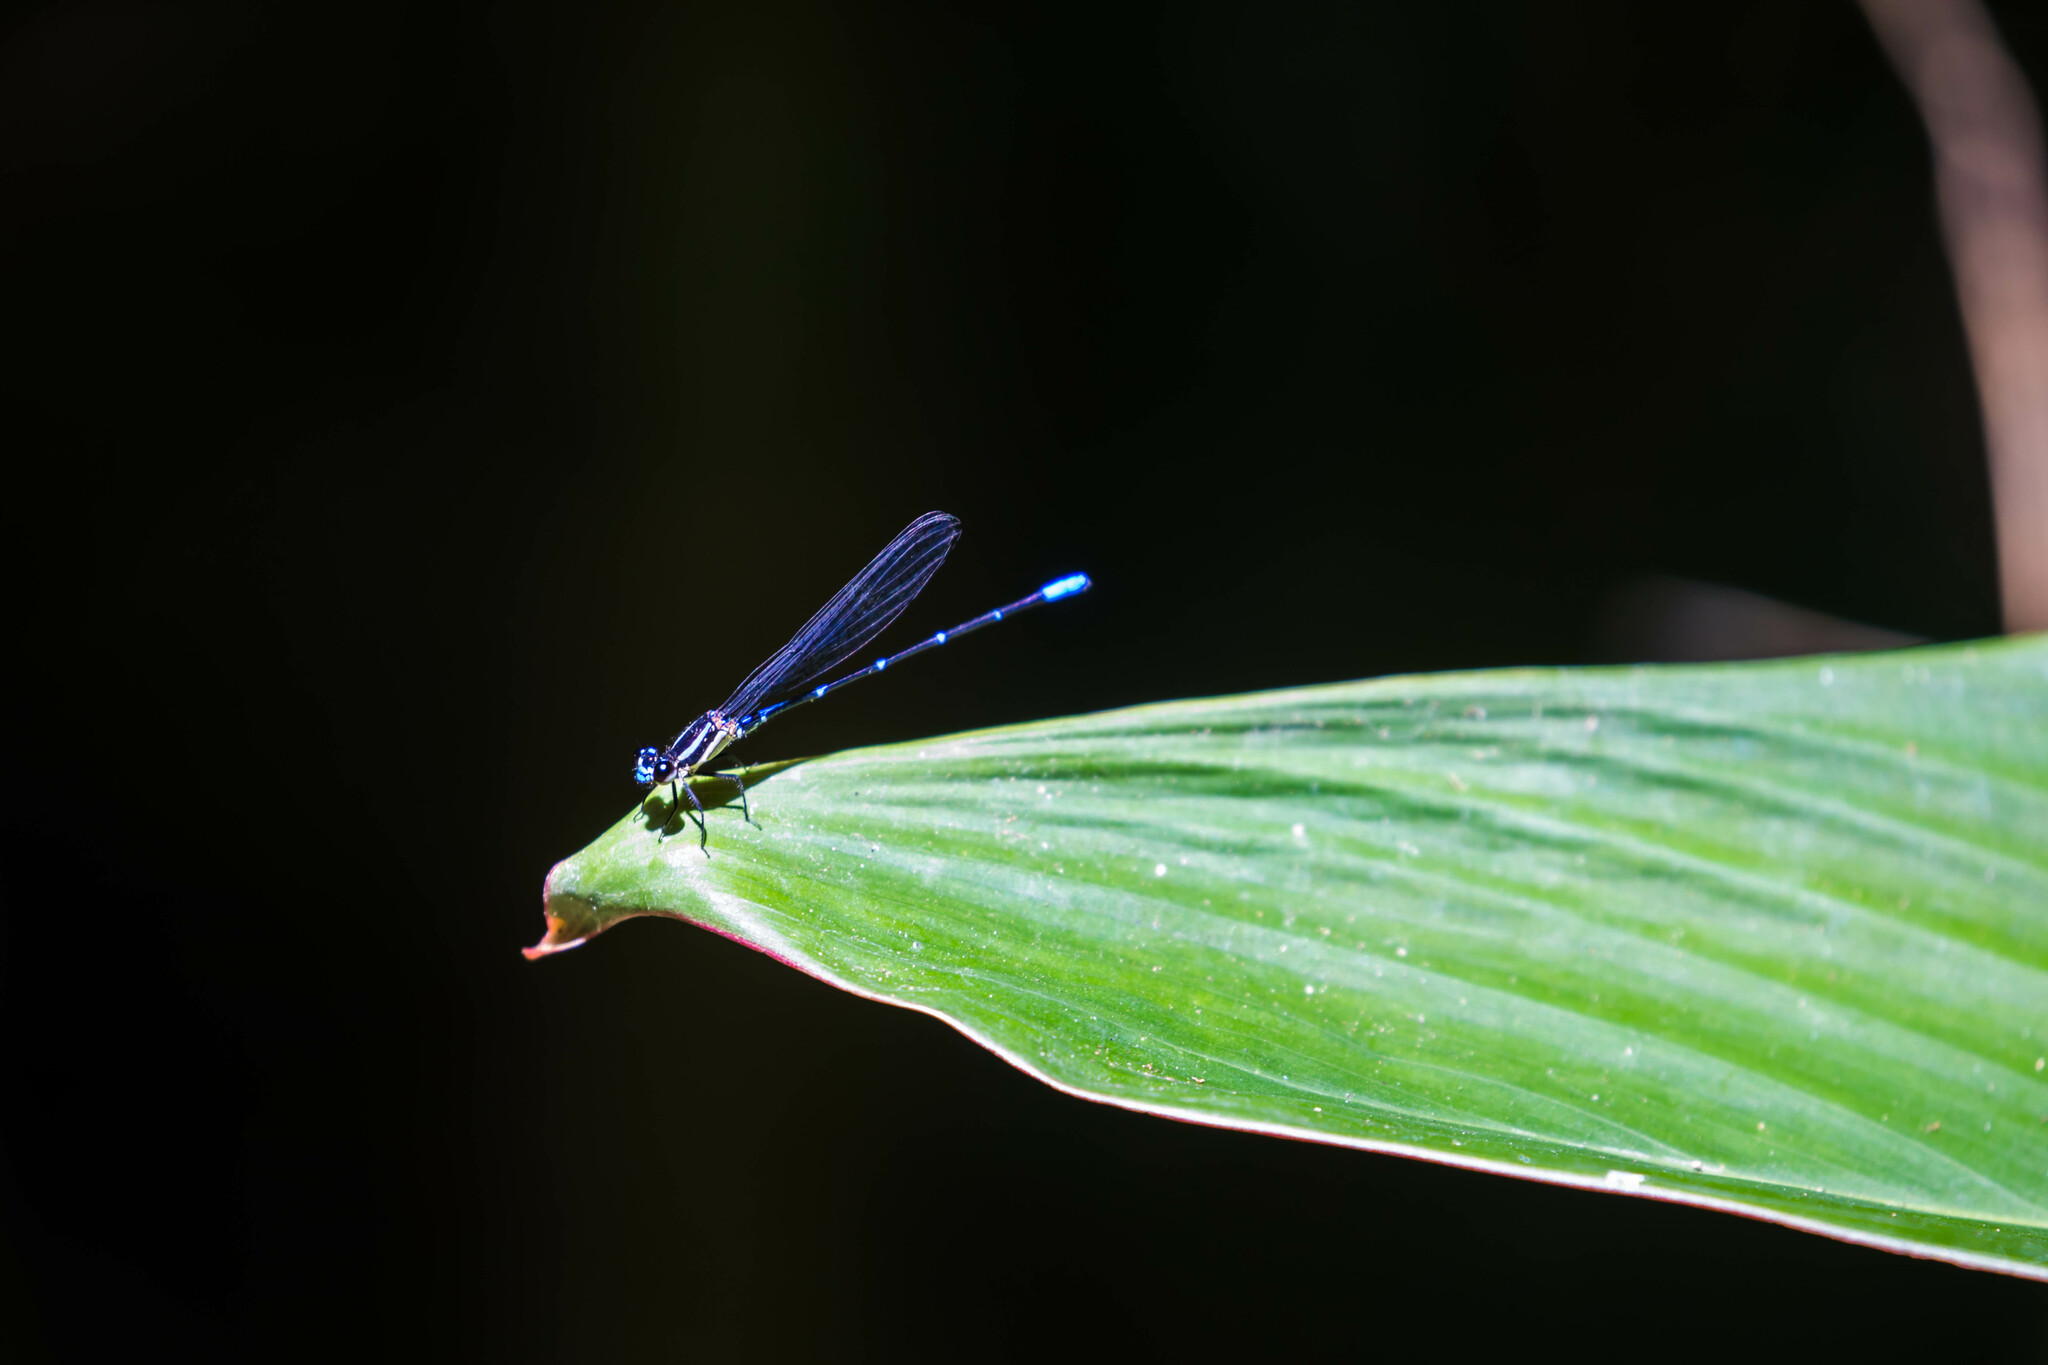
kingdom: Animalia
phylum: Arthropoda
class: Insecta
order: Odonata
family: Coenagrionidae
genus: Argia
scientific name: Argia oculata
